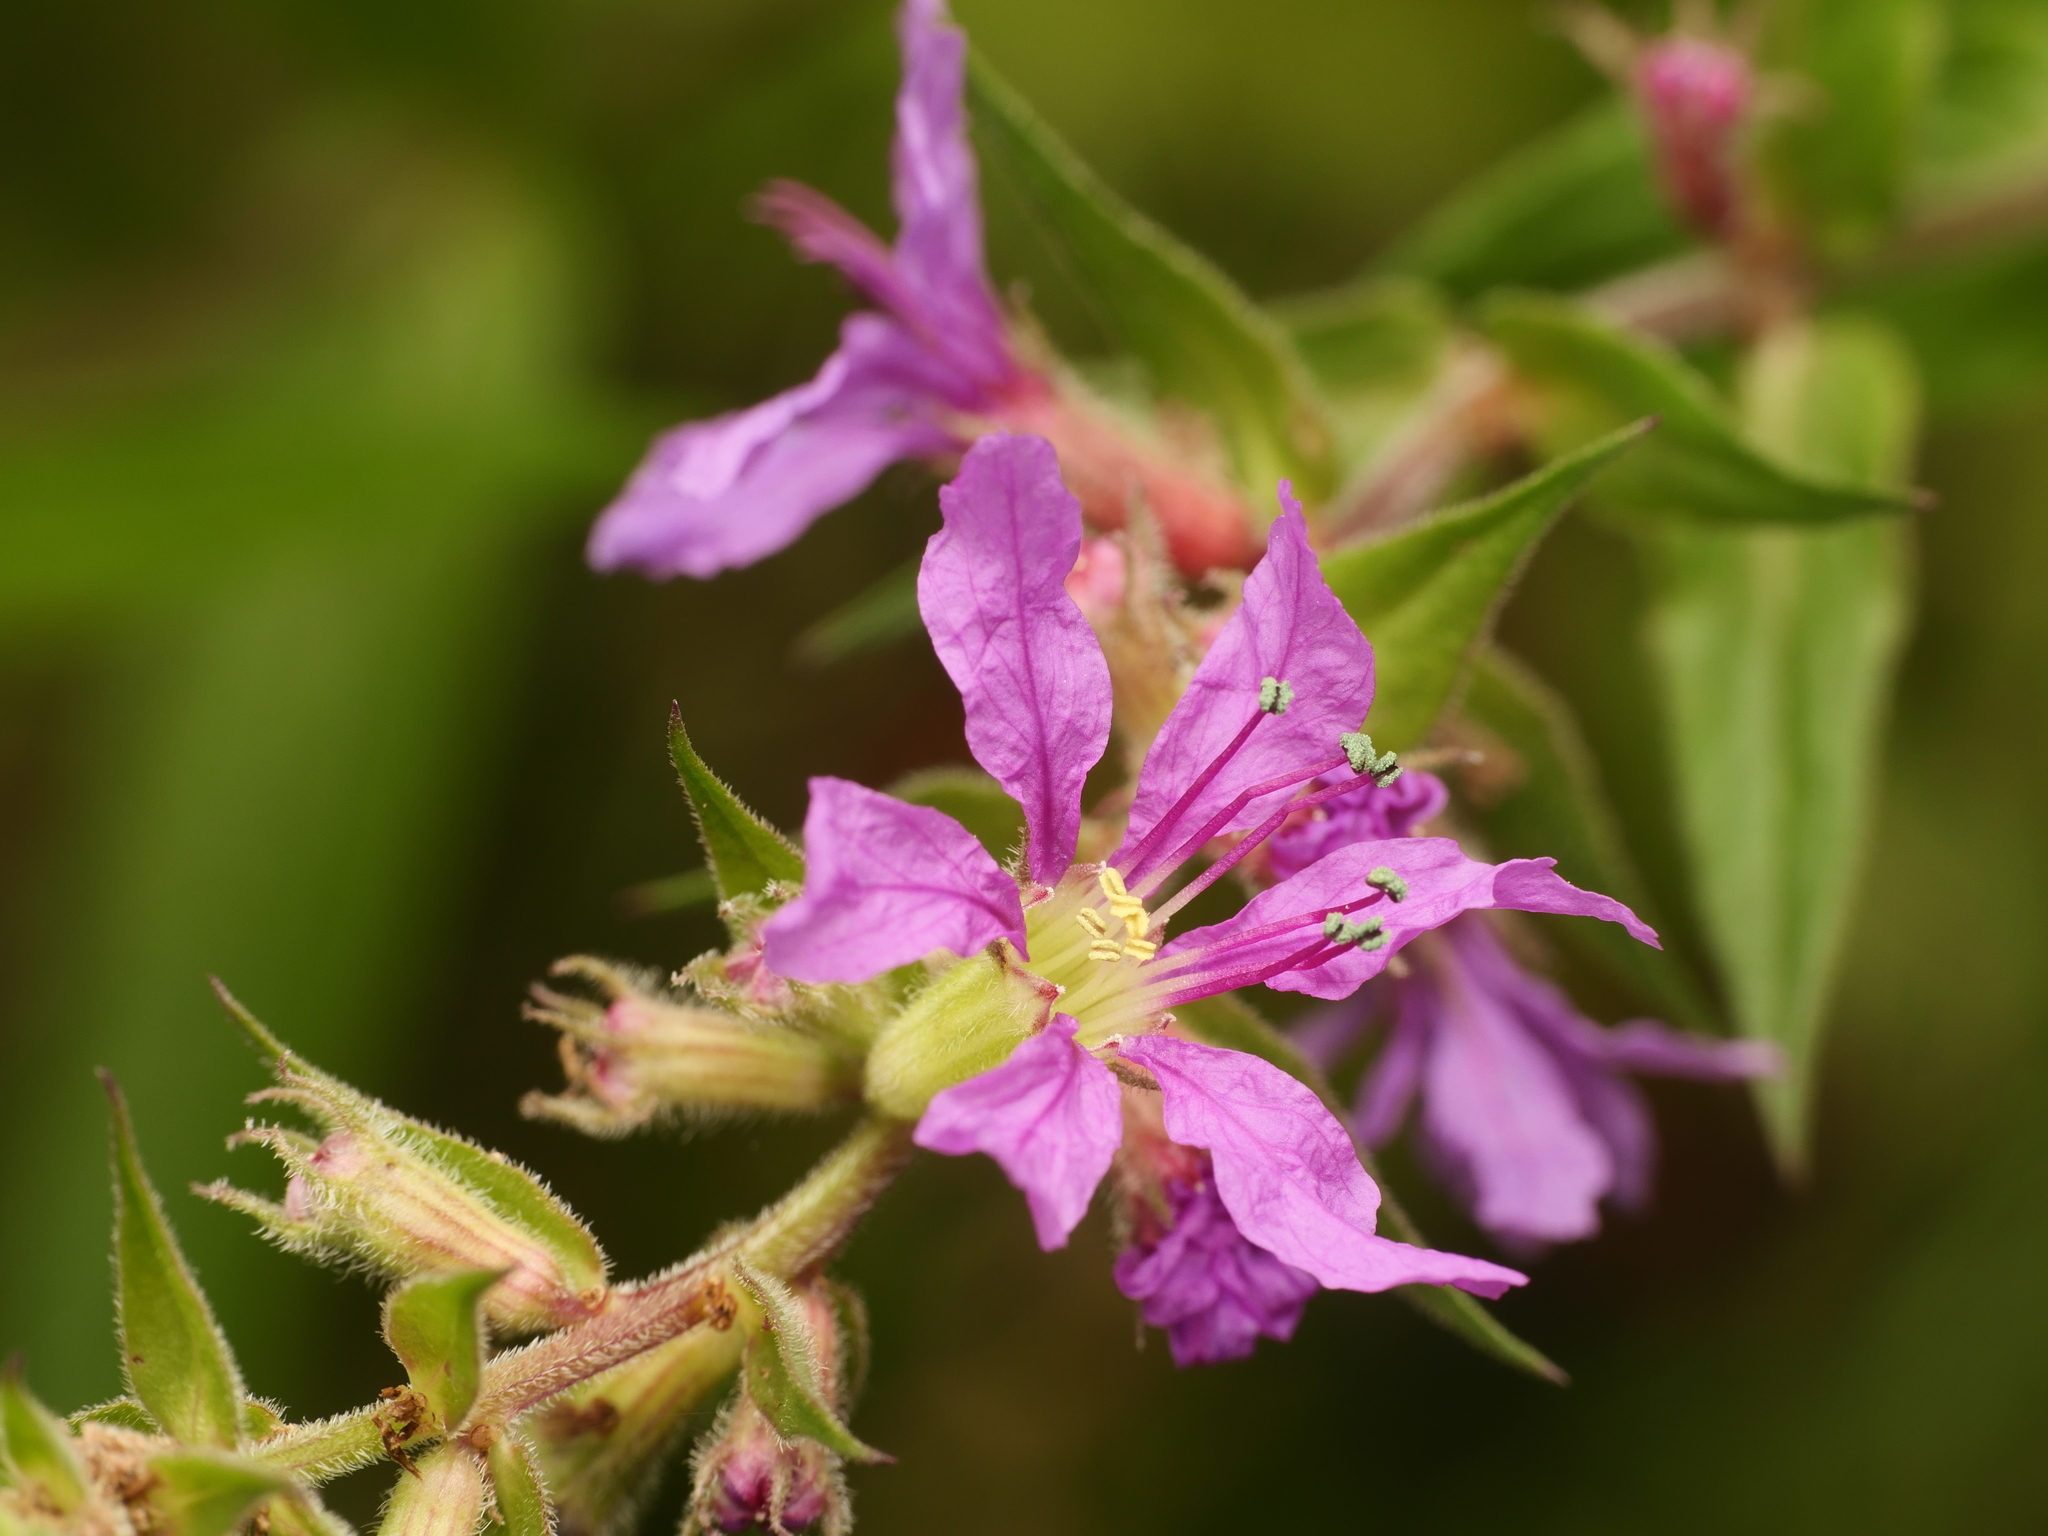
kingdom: Plantae
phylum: Tracheophyta
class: Magnoliopsida
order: Myrtales
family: Lythraceae
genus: Lythrum
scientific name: Lythrum salicaria
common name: Purple loosestrife
